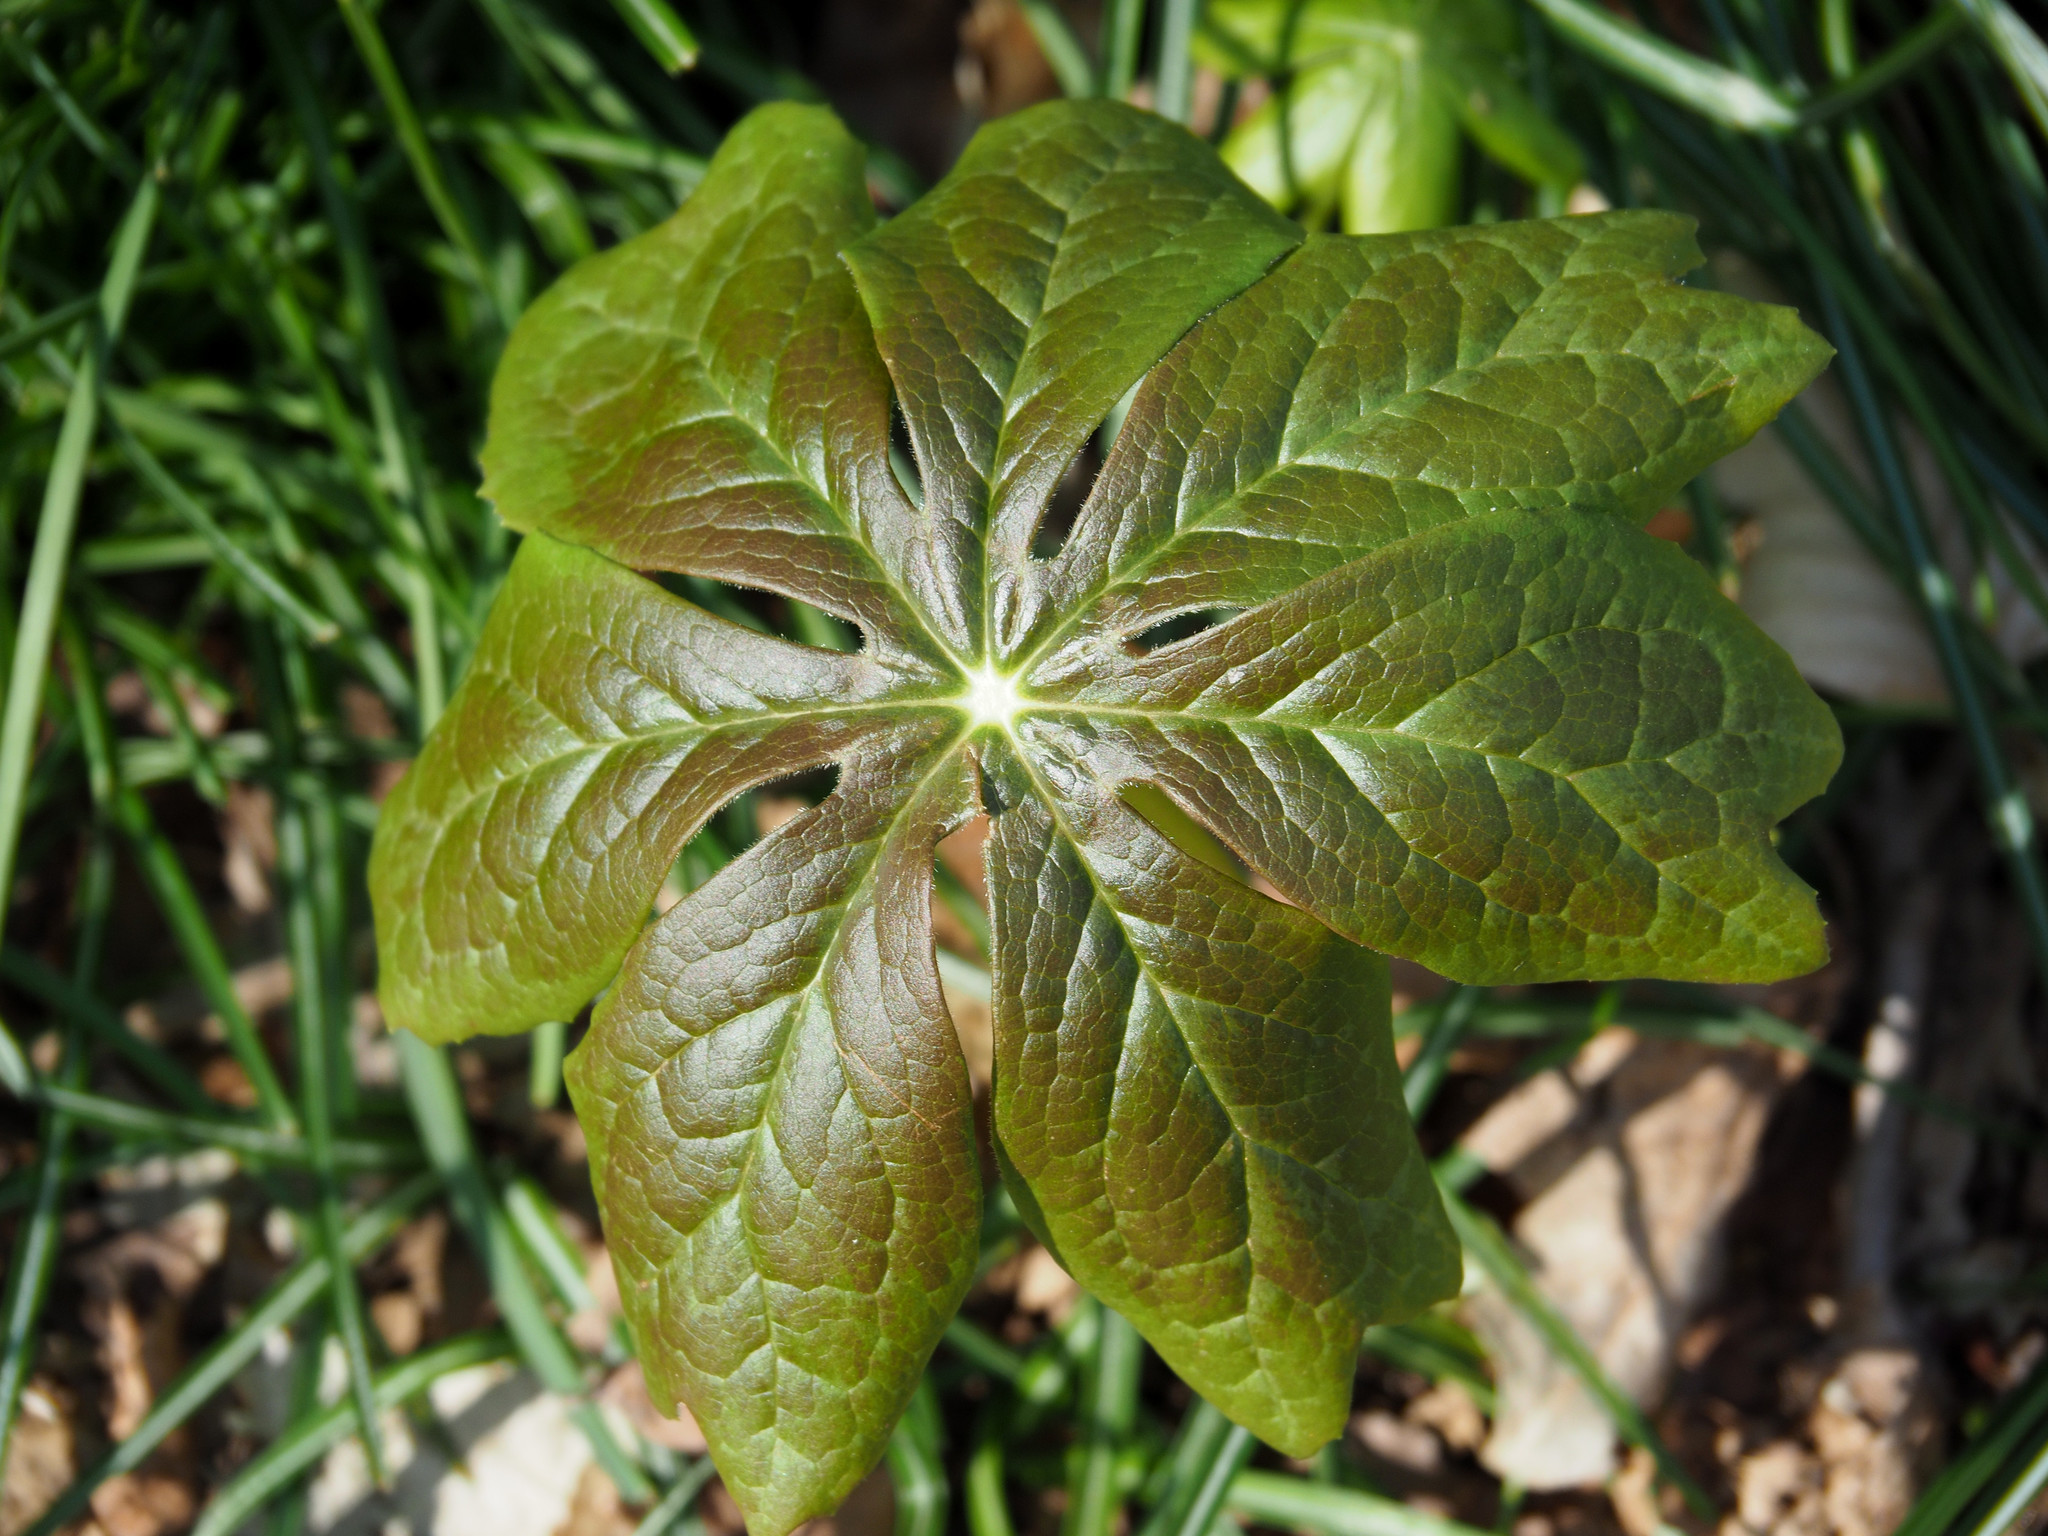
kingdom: Plantae
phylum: Tracheophyta
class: Magnoliopsida
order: Ranunculales
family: Berberidaceae
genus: Podophyllum
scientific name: Podophyllum peltatum
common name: Wild mandrake
